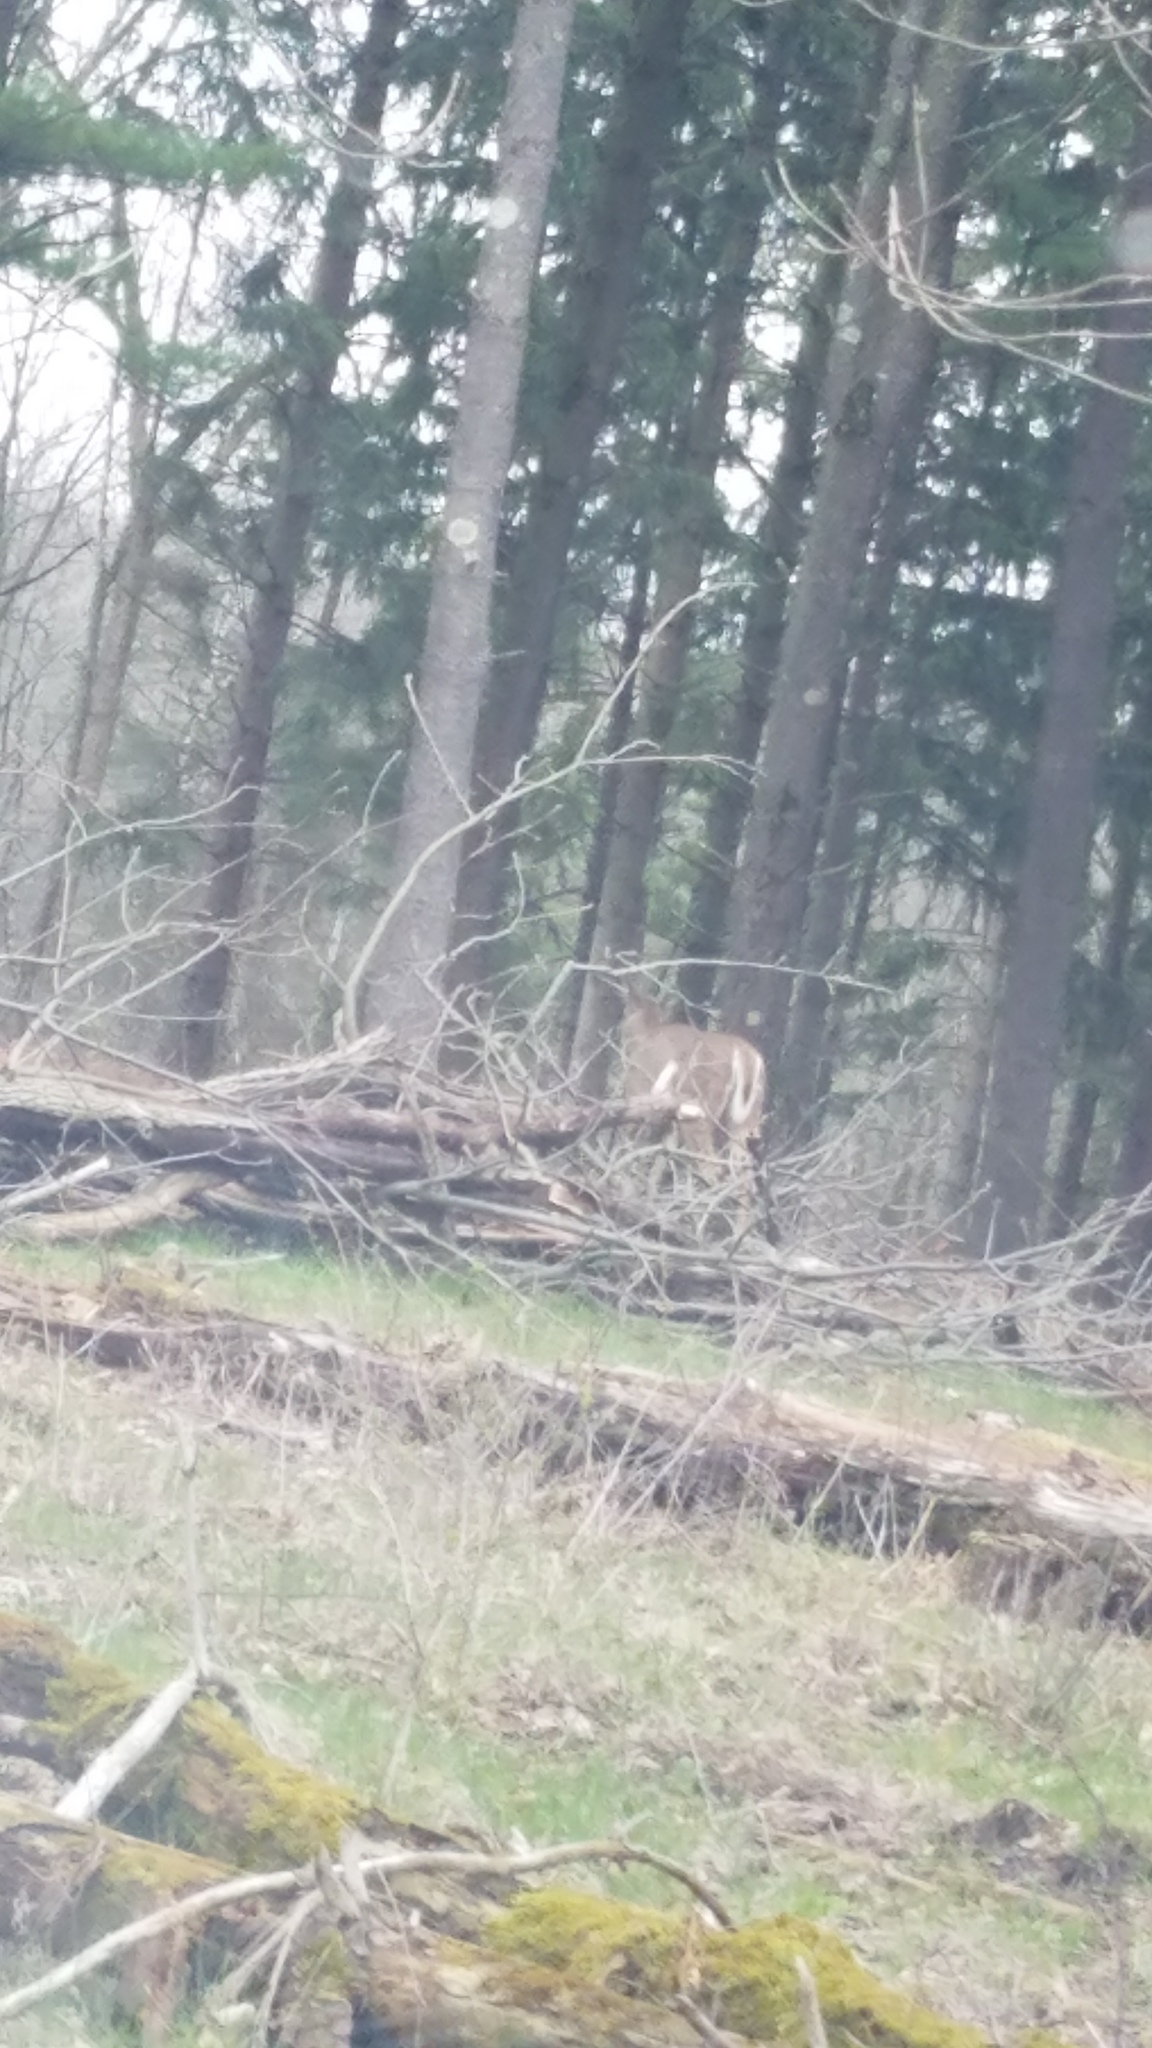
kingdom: Animalia
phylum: Chordata
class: Mammalia
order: Artiodactyla
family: Cervidae
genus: Odocoileus
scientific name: Odocoileus virginianus
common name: White-tailed deer
